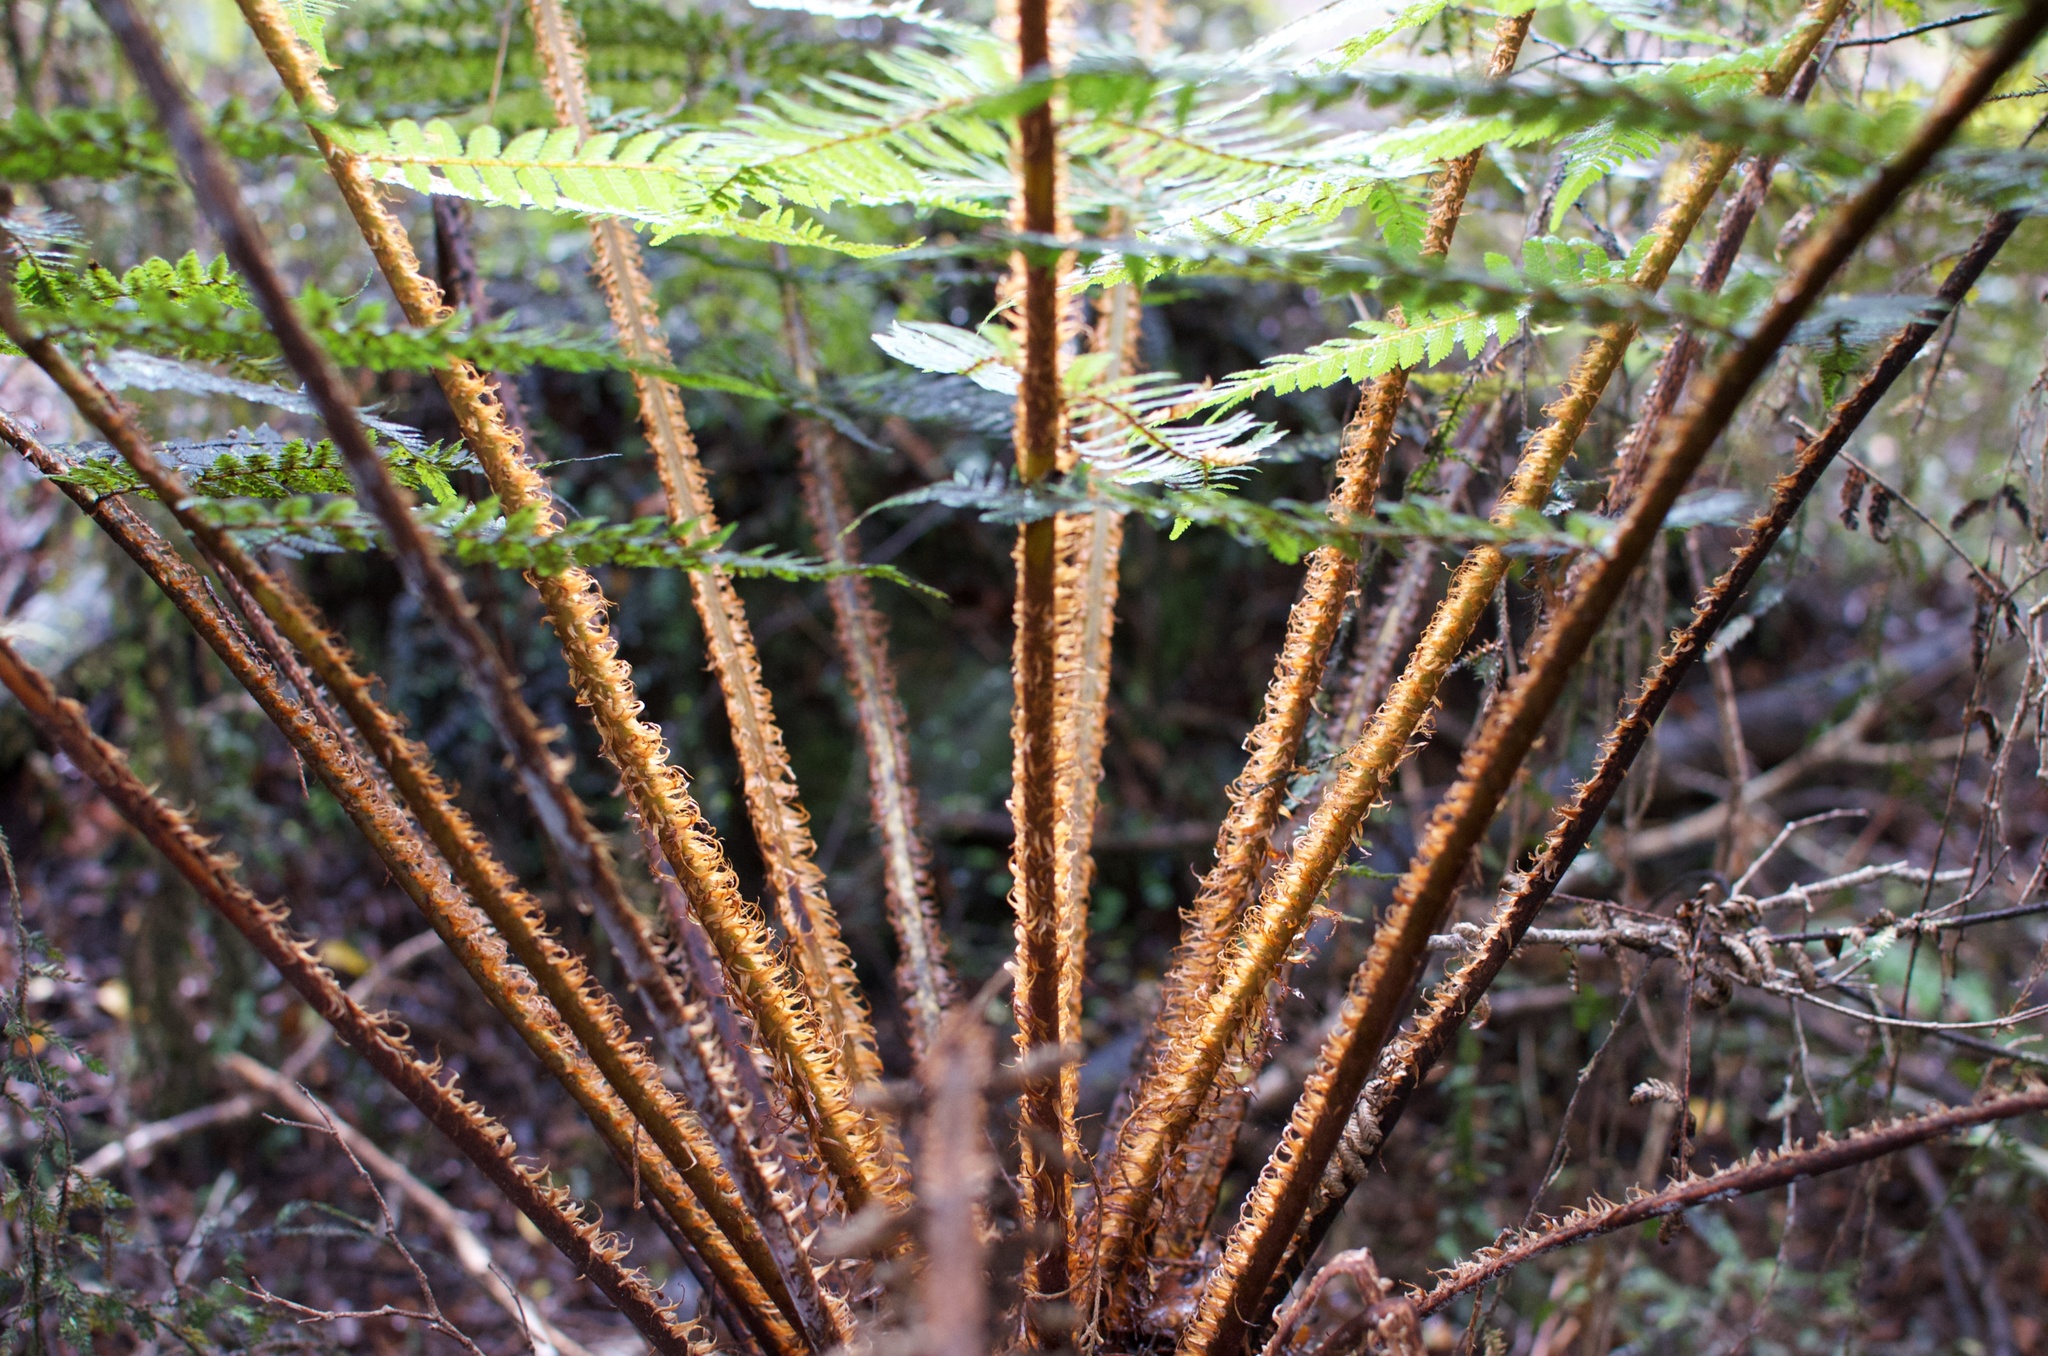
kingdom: Plantae
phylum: Tracheophyta
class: Polypodiopsida
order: Cyatheales
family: Cyatheaceae
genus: Alsophila
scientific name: Alsophila smithii
